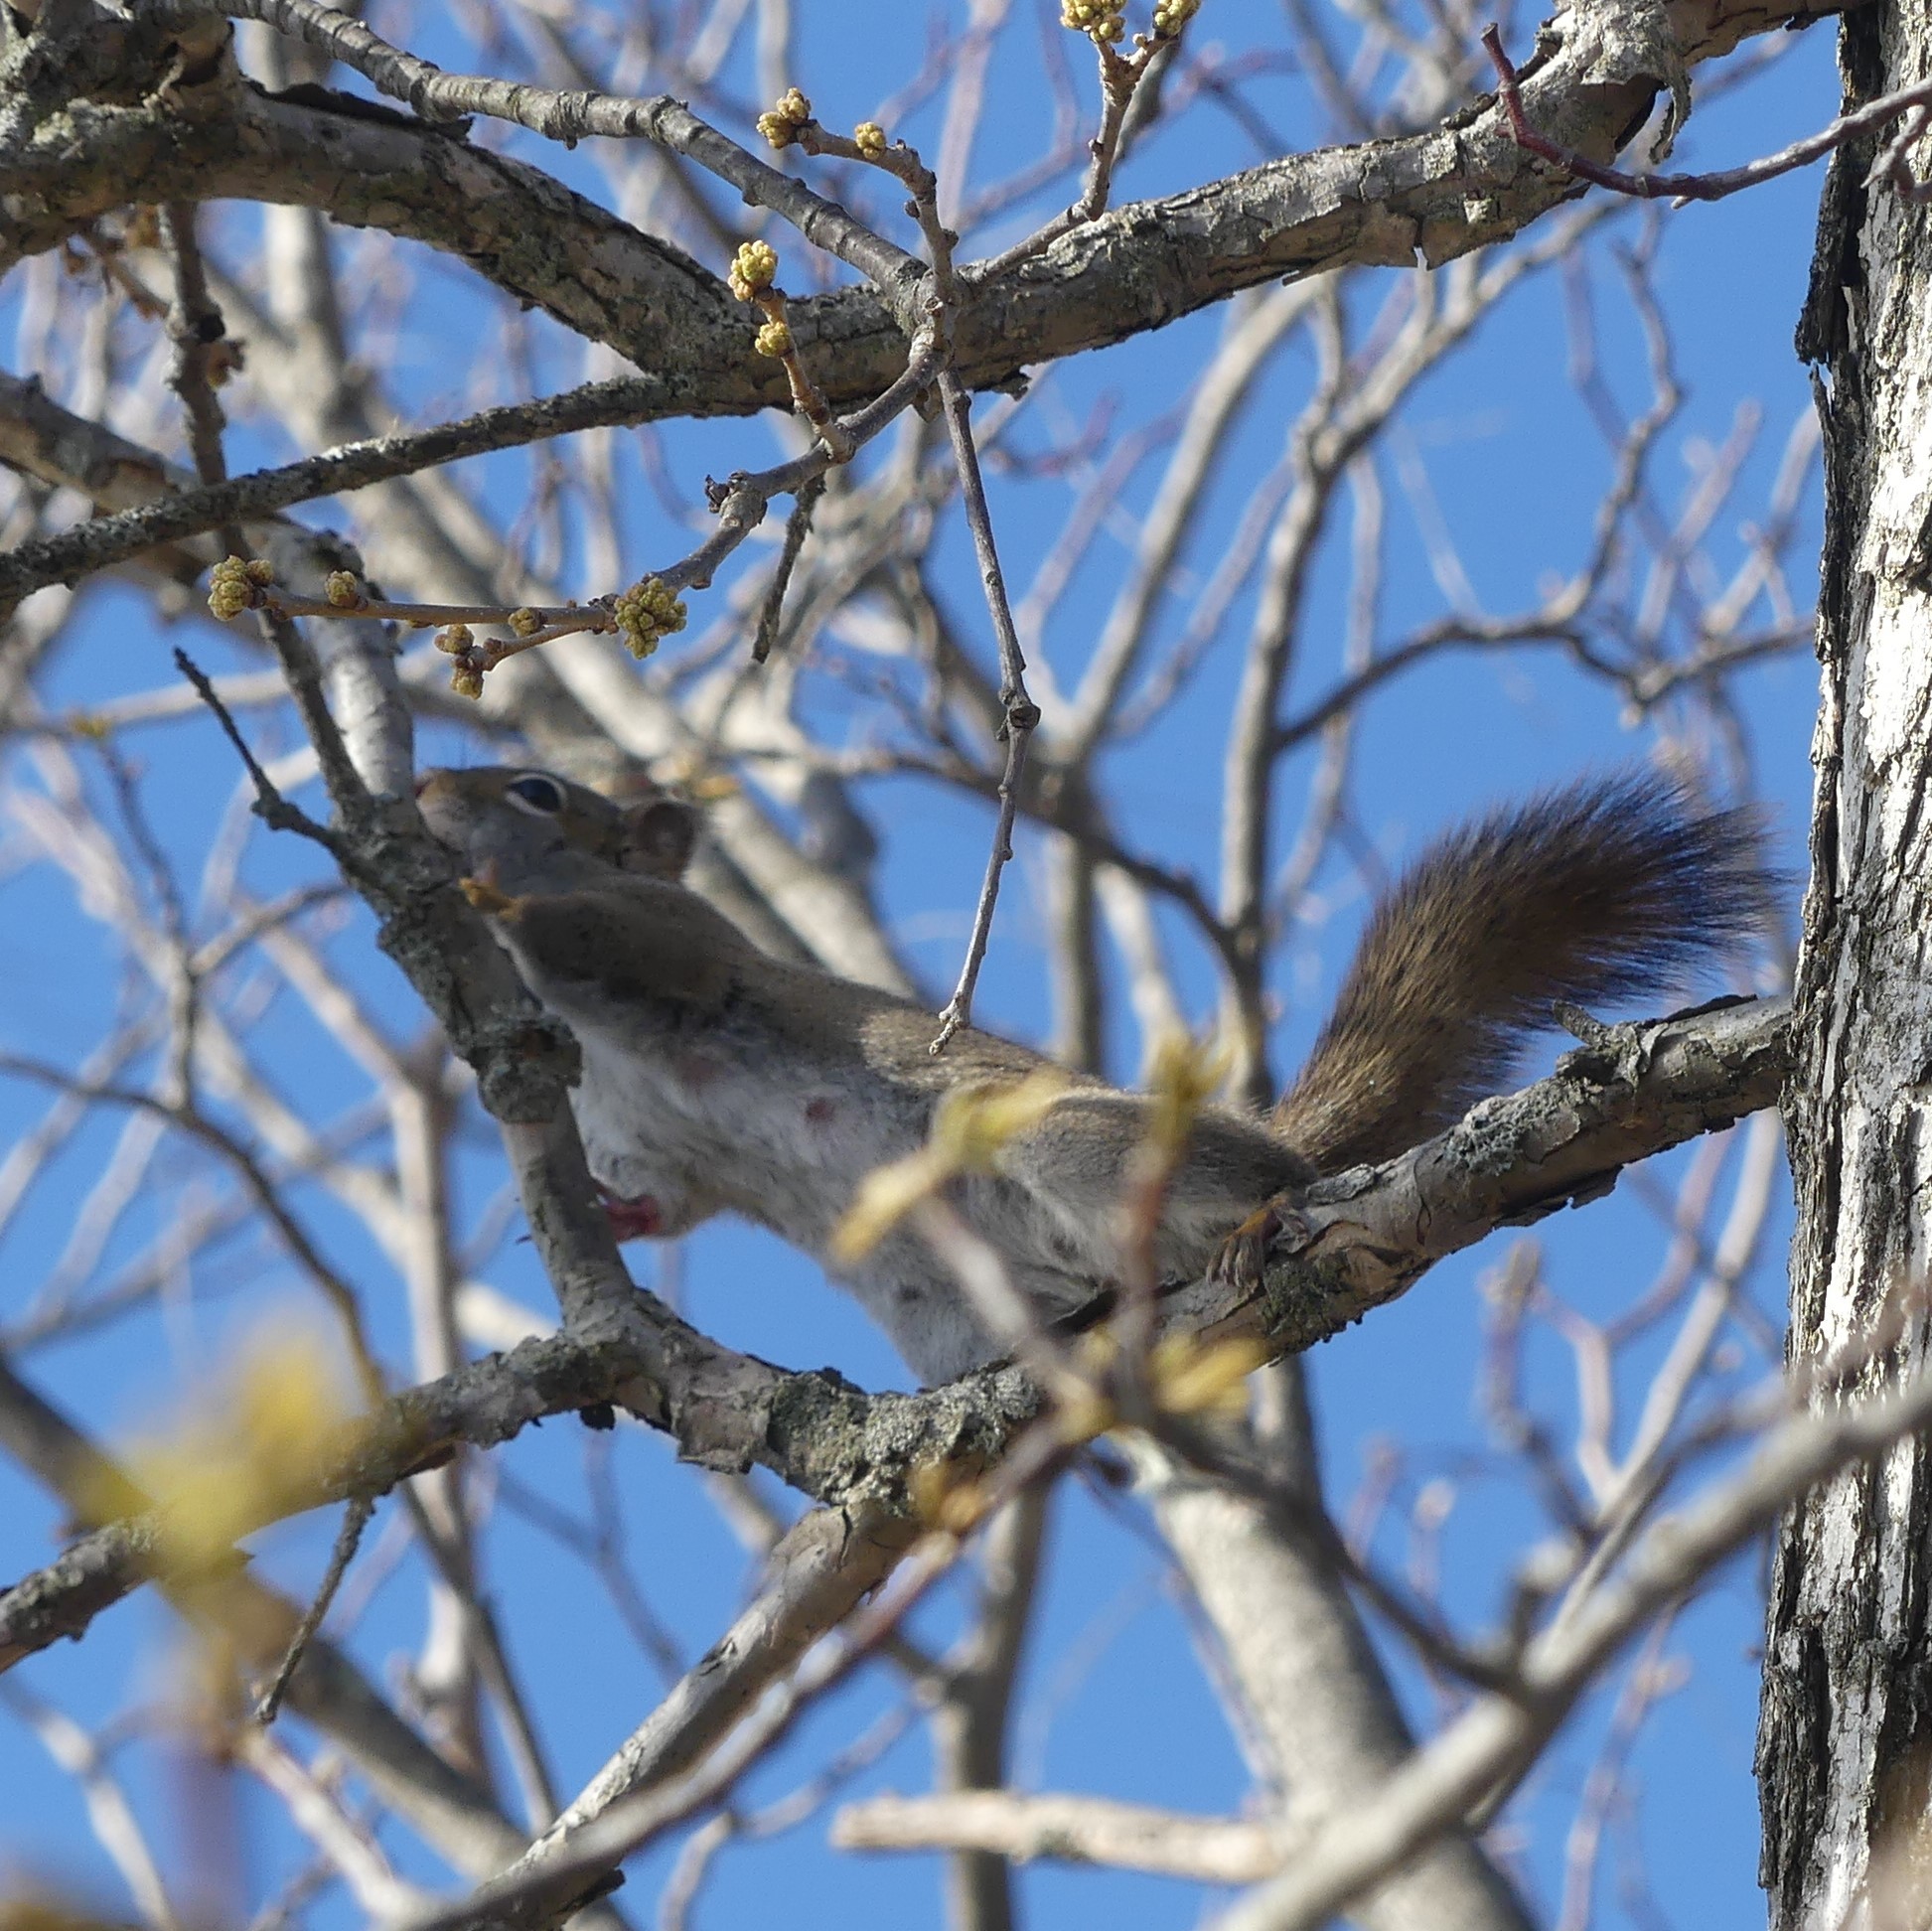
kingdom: Animalia
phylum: Chordata
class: Mammalia
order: Rodentia
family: Sciuridae
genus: Tamiasciurus
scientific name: Tamiasciurus hudsonicus
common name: Red squirrel
